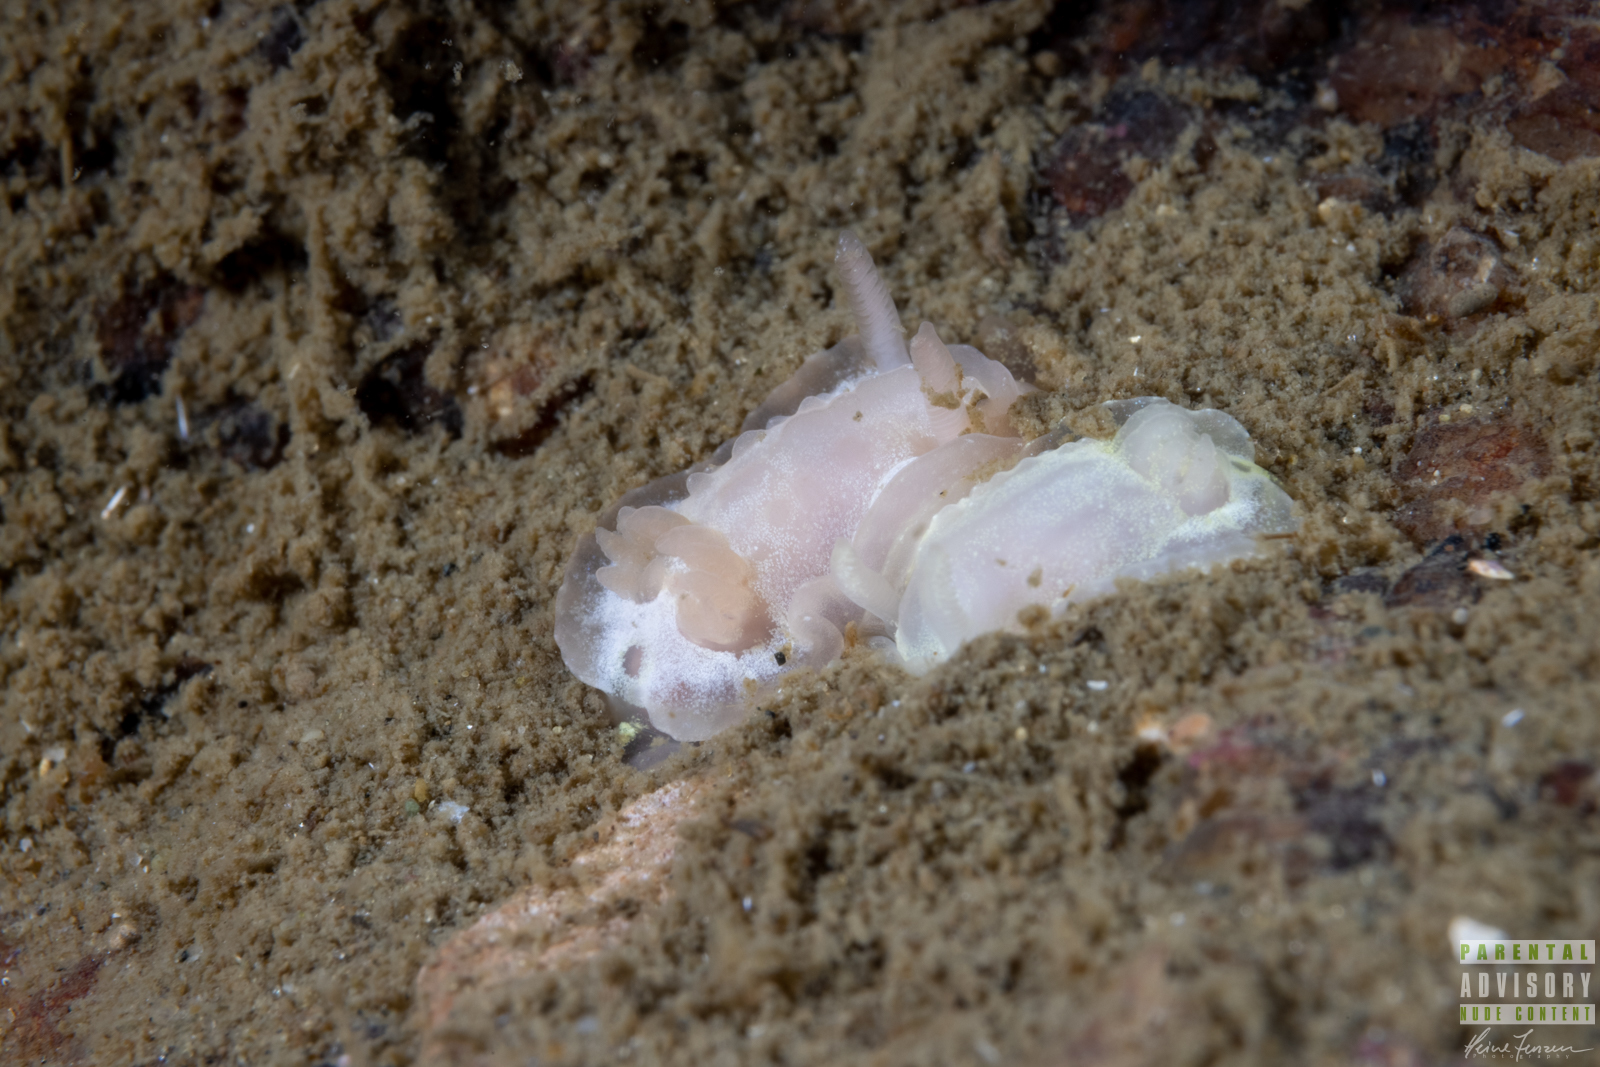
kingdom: Animalia
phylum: Mollusca
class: Gastropoda
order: Nudibranchia
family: Goniodorididae
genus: Okenia
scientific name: Okenia
